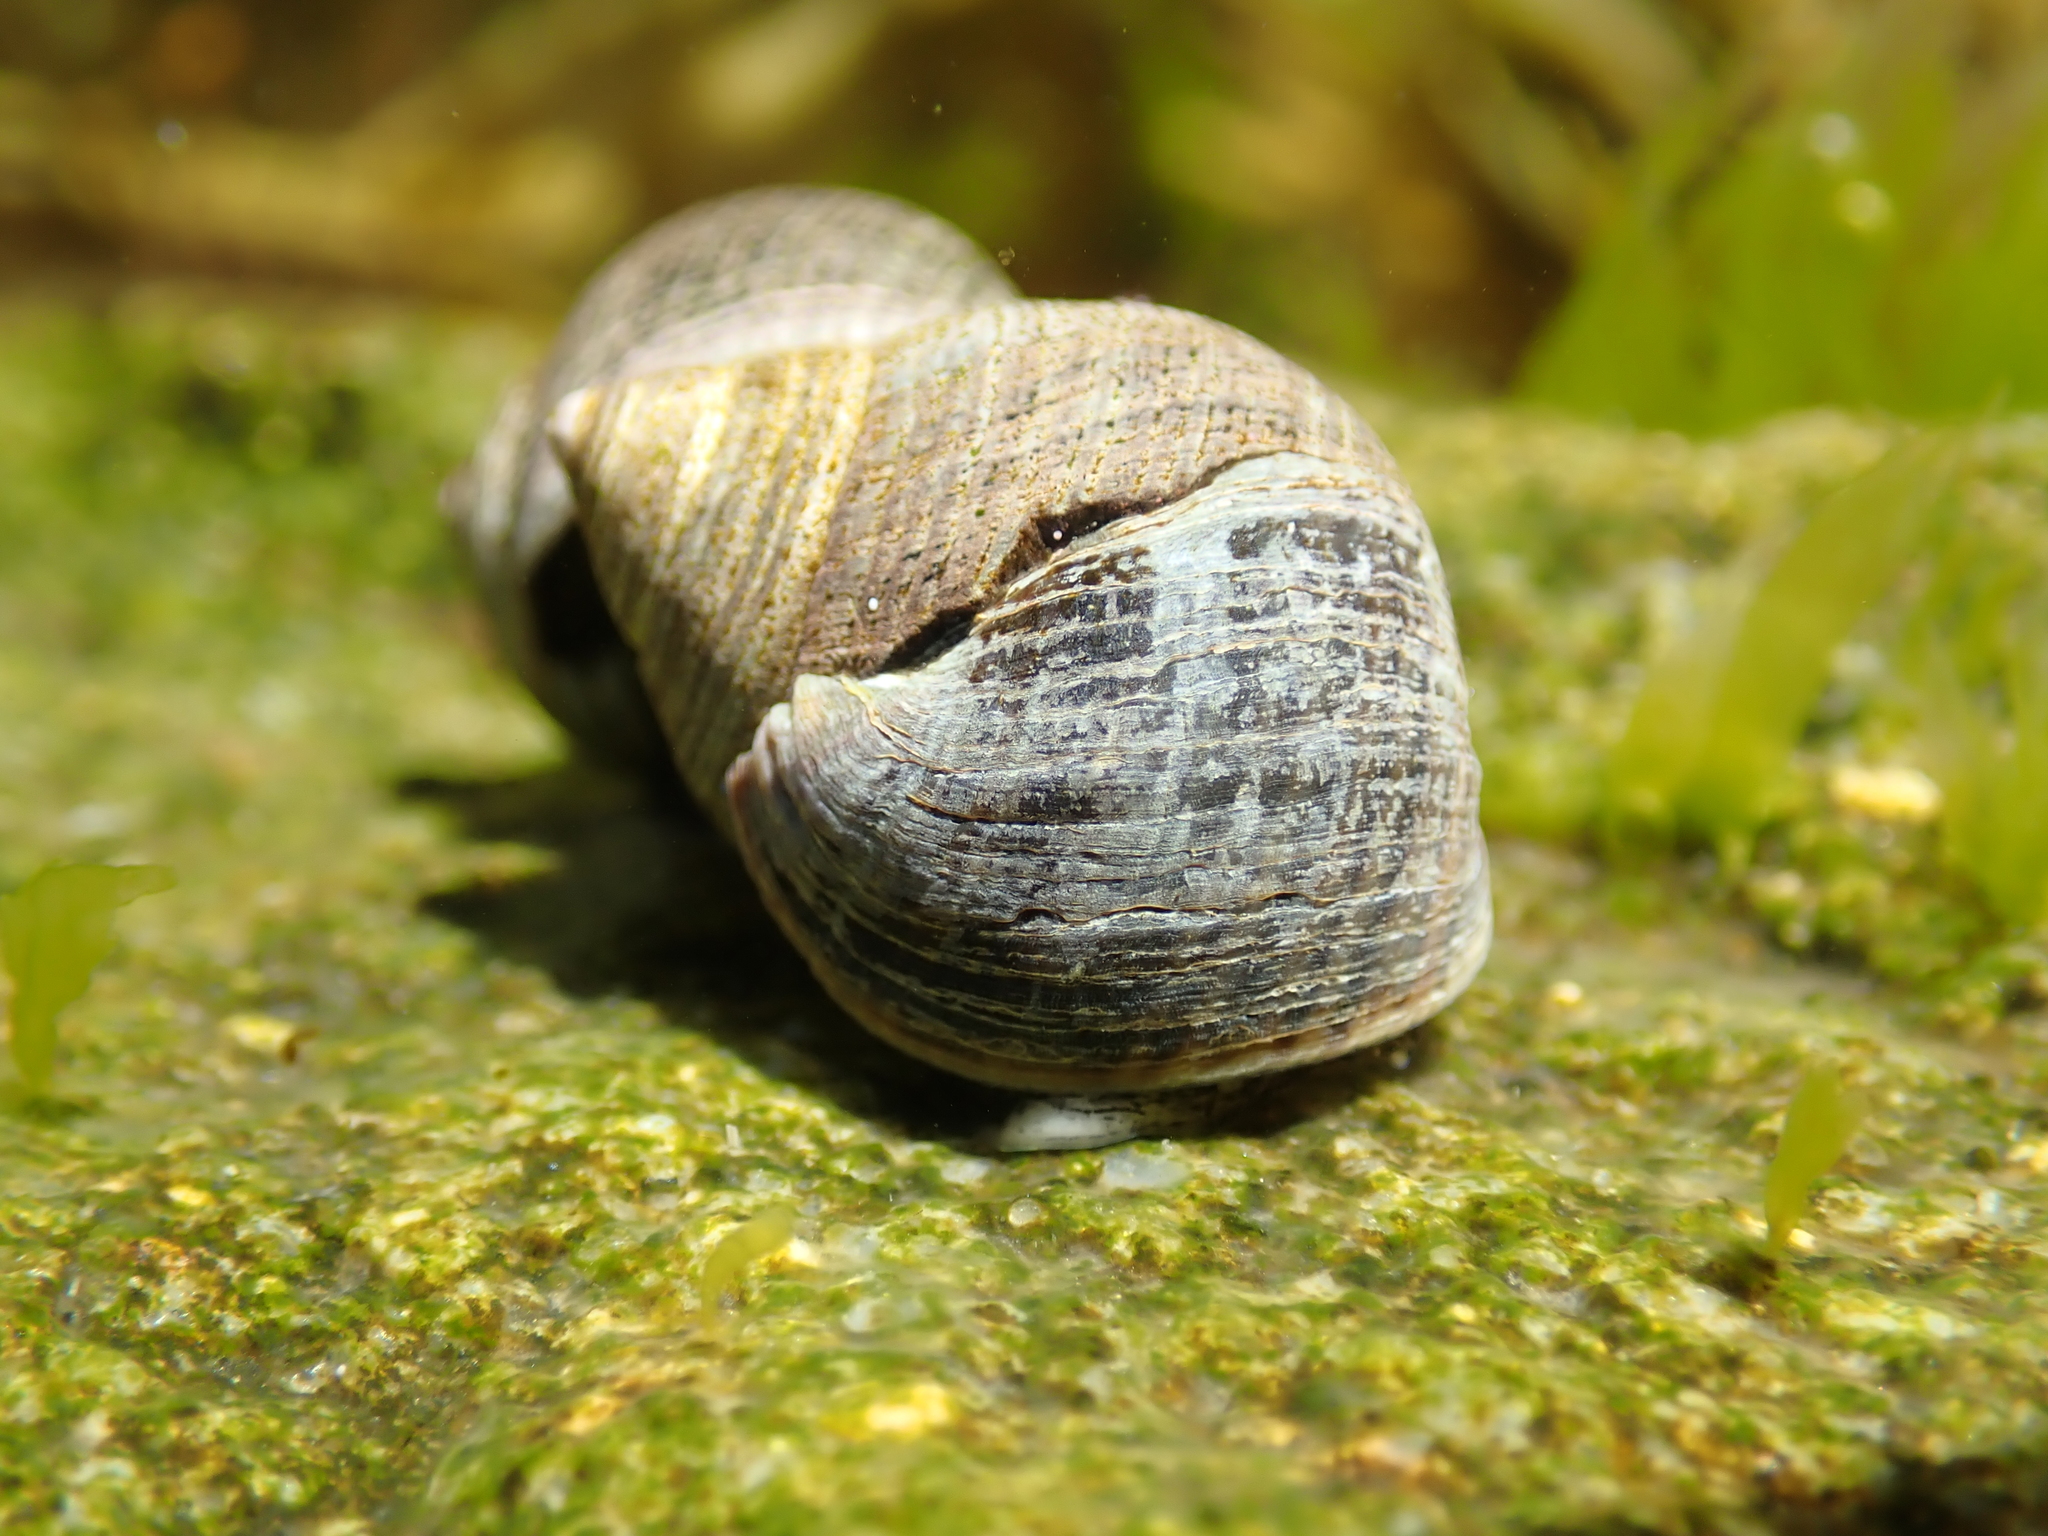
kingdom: Animalia
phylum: Mollusca
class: Gastropoda
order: Littorinimorpha
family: Littorinidae
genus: Littorina
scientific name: Littorina littorea
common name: Common periwinkle
